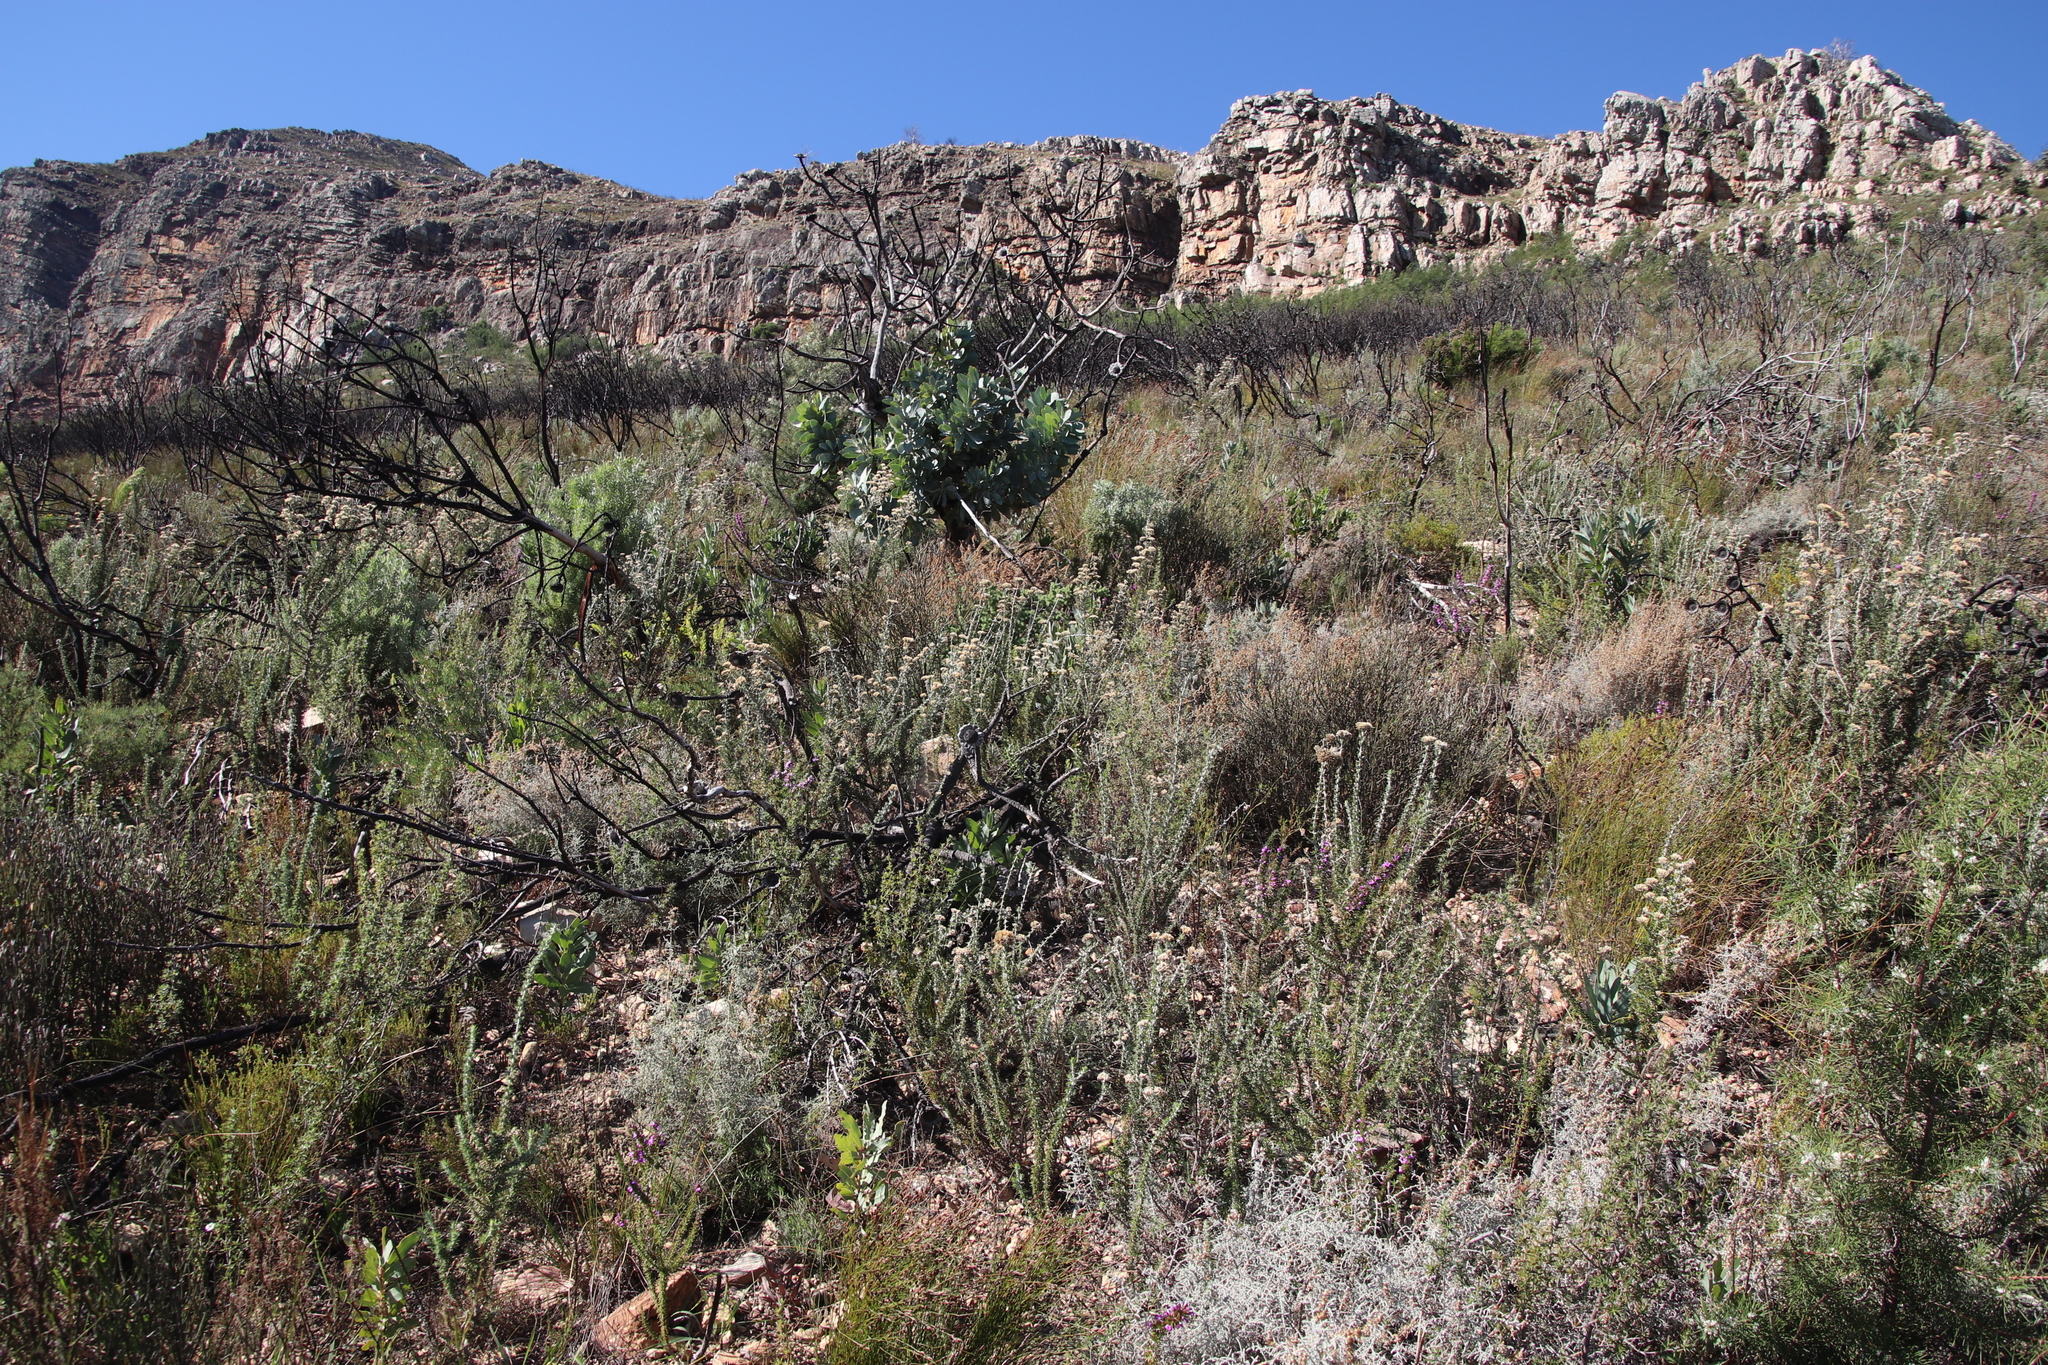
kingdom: Plantae
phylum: Tracheophyta
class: Magnoliopsida
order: Proteales
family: Proteaceae
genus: Protea
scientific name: Protea nitida
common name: Tree protea
